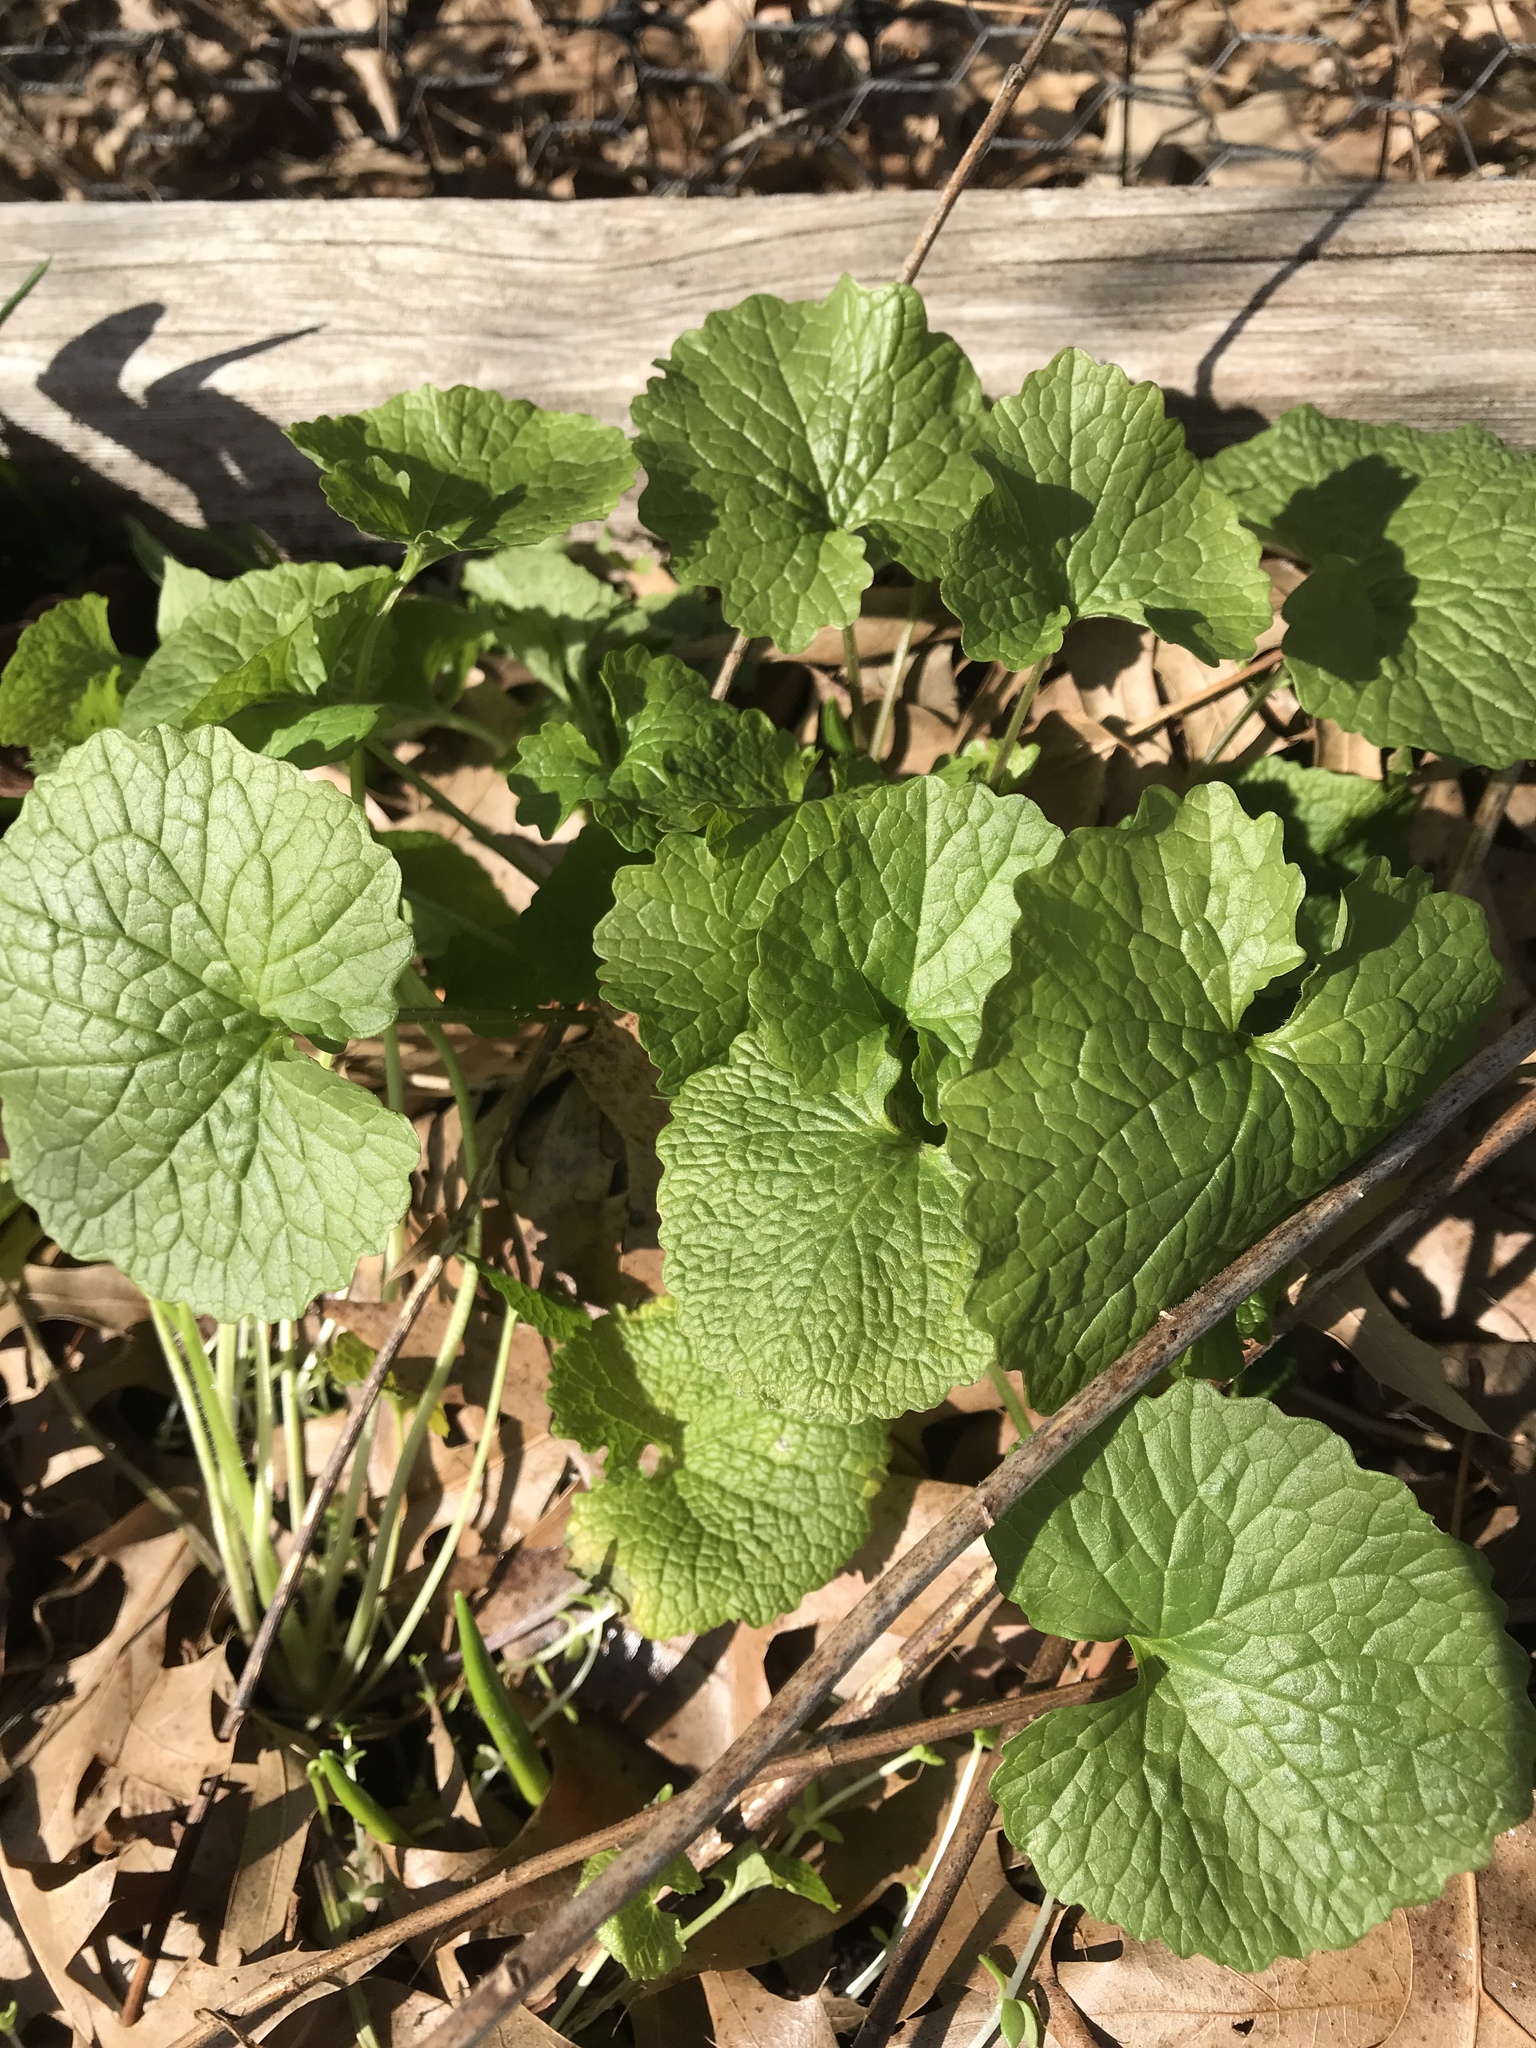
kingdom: Plantae
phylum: Tracheophyta
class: Magnoliopsida
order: Brassicales
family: Brassicaceae
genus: Alliaria
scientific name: Alliaria petiolata
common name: Garlic mustard
